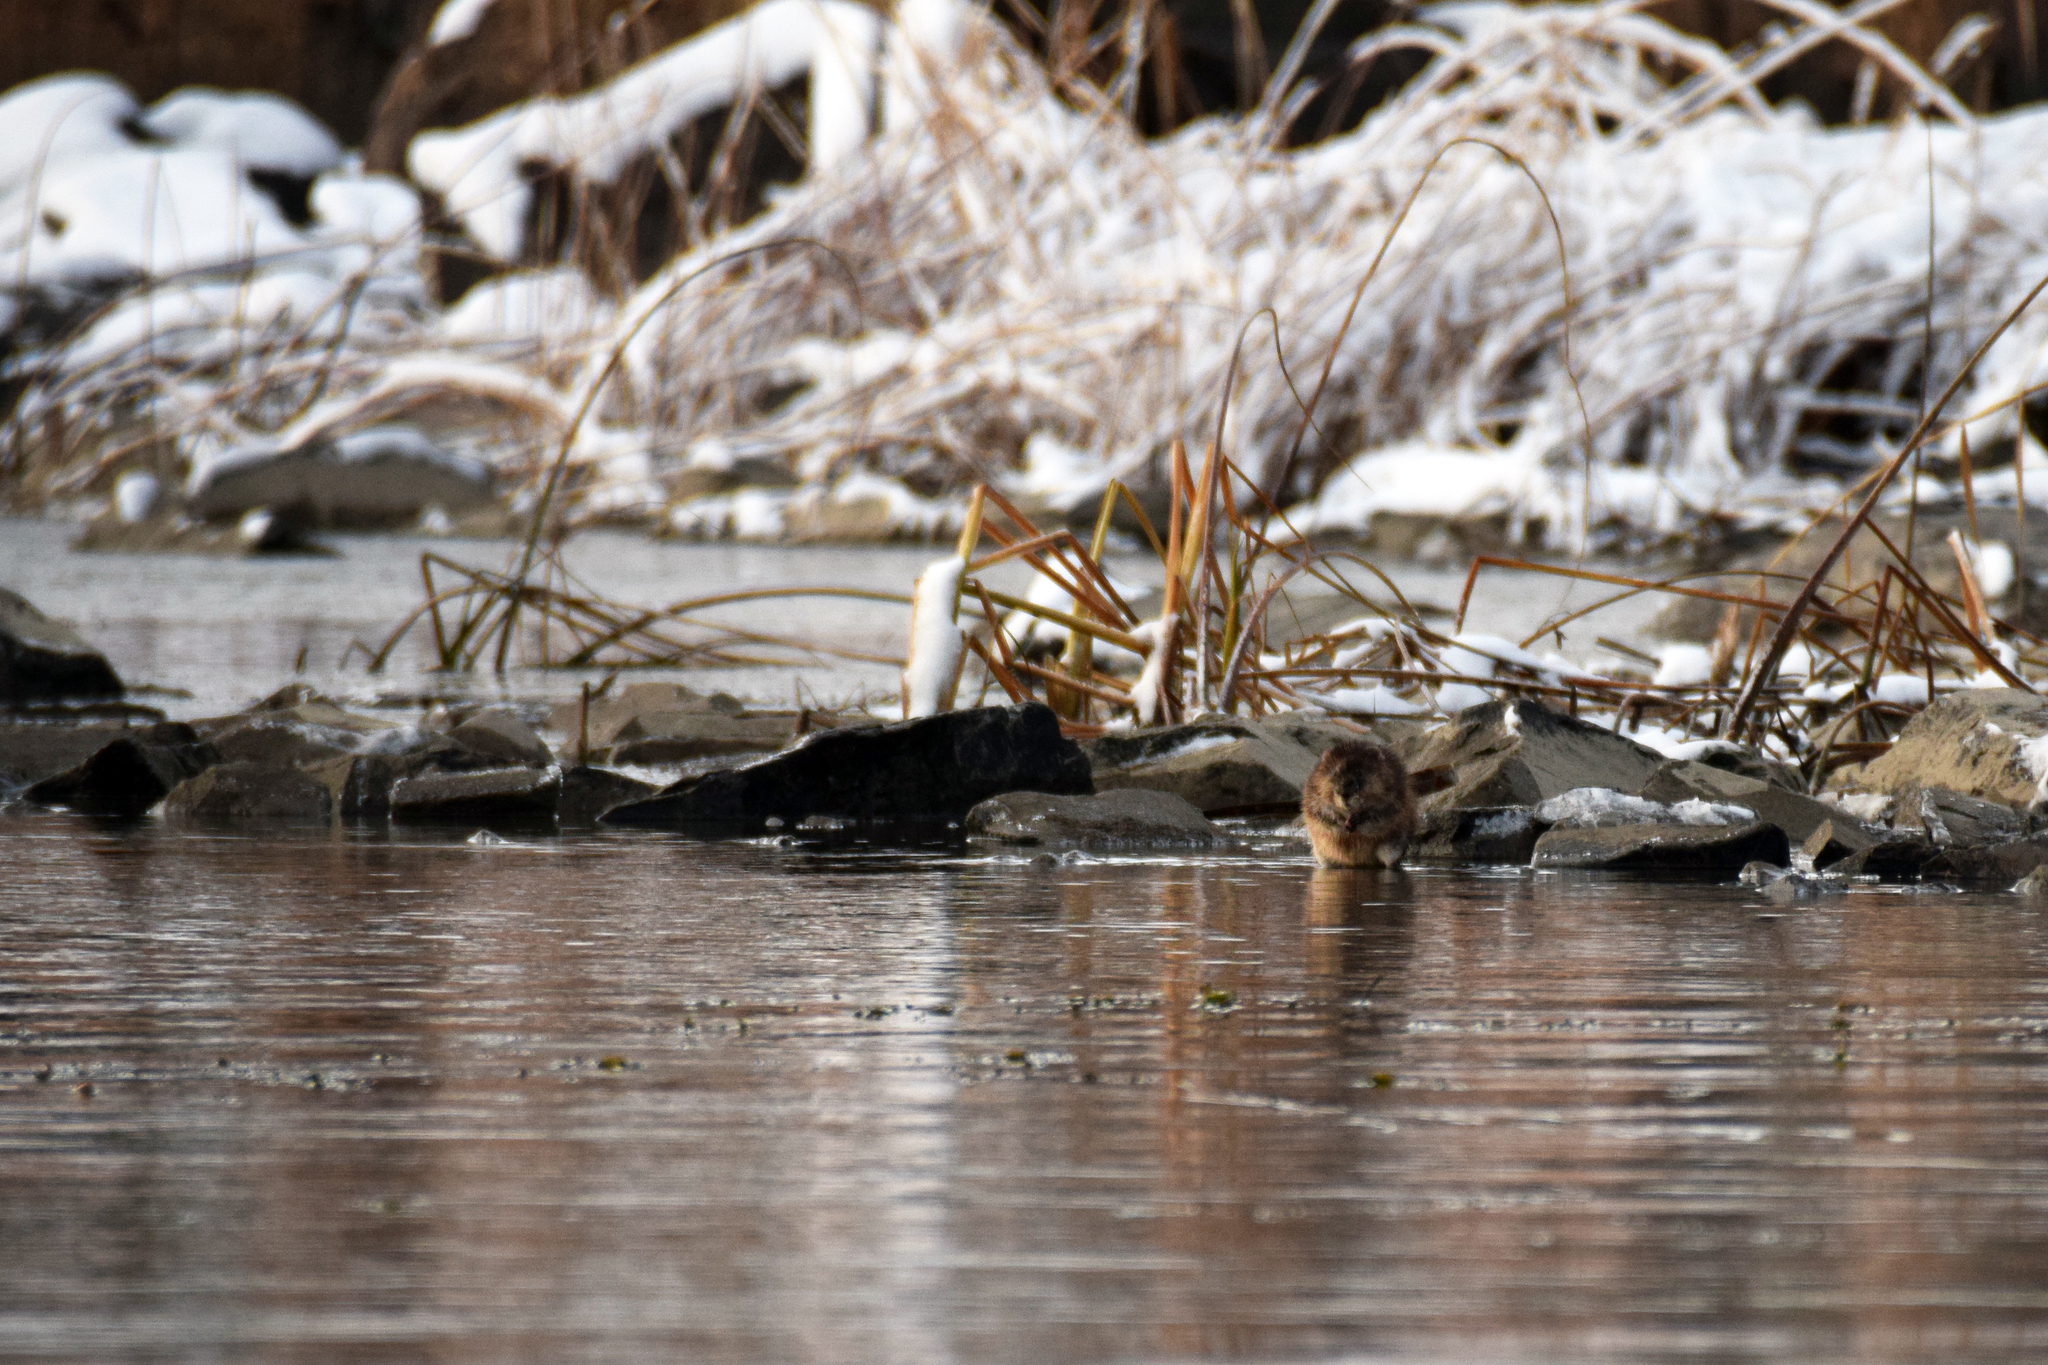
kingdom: Animalia
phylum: Chordata
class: Mammalia
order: Rodentia
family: Cricetidae
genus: Ondatra
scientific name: Ondatra zibethicus
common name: Muskrat
